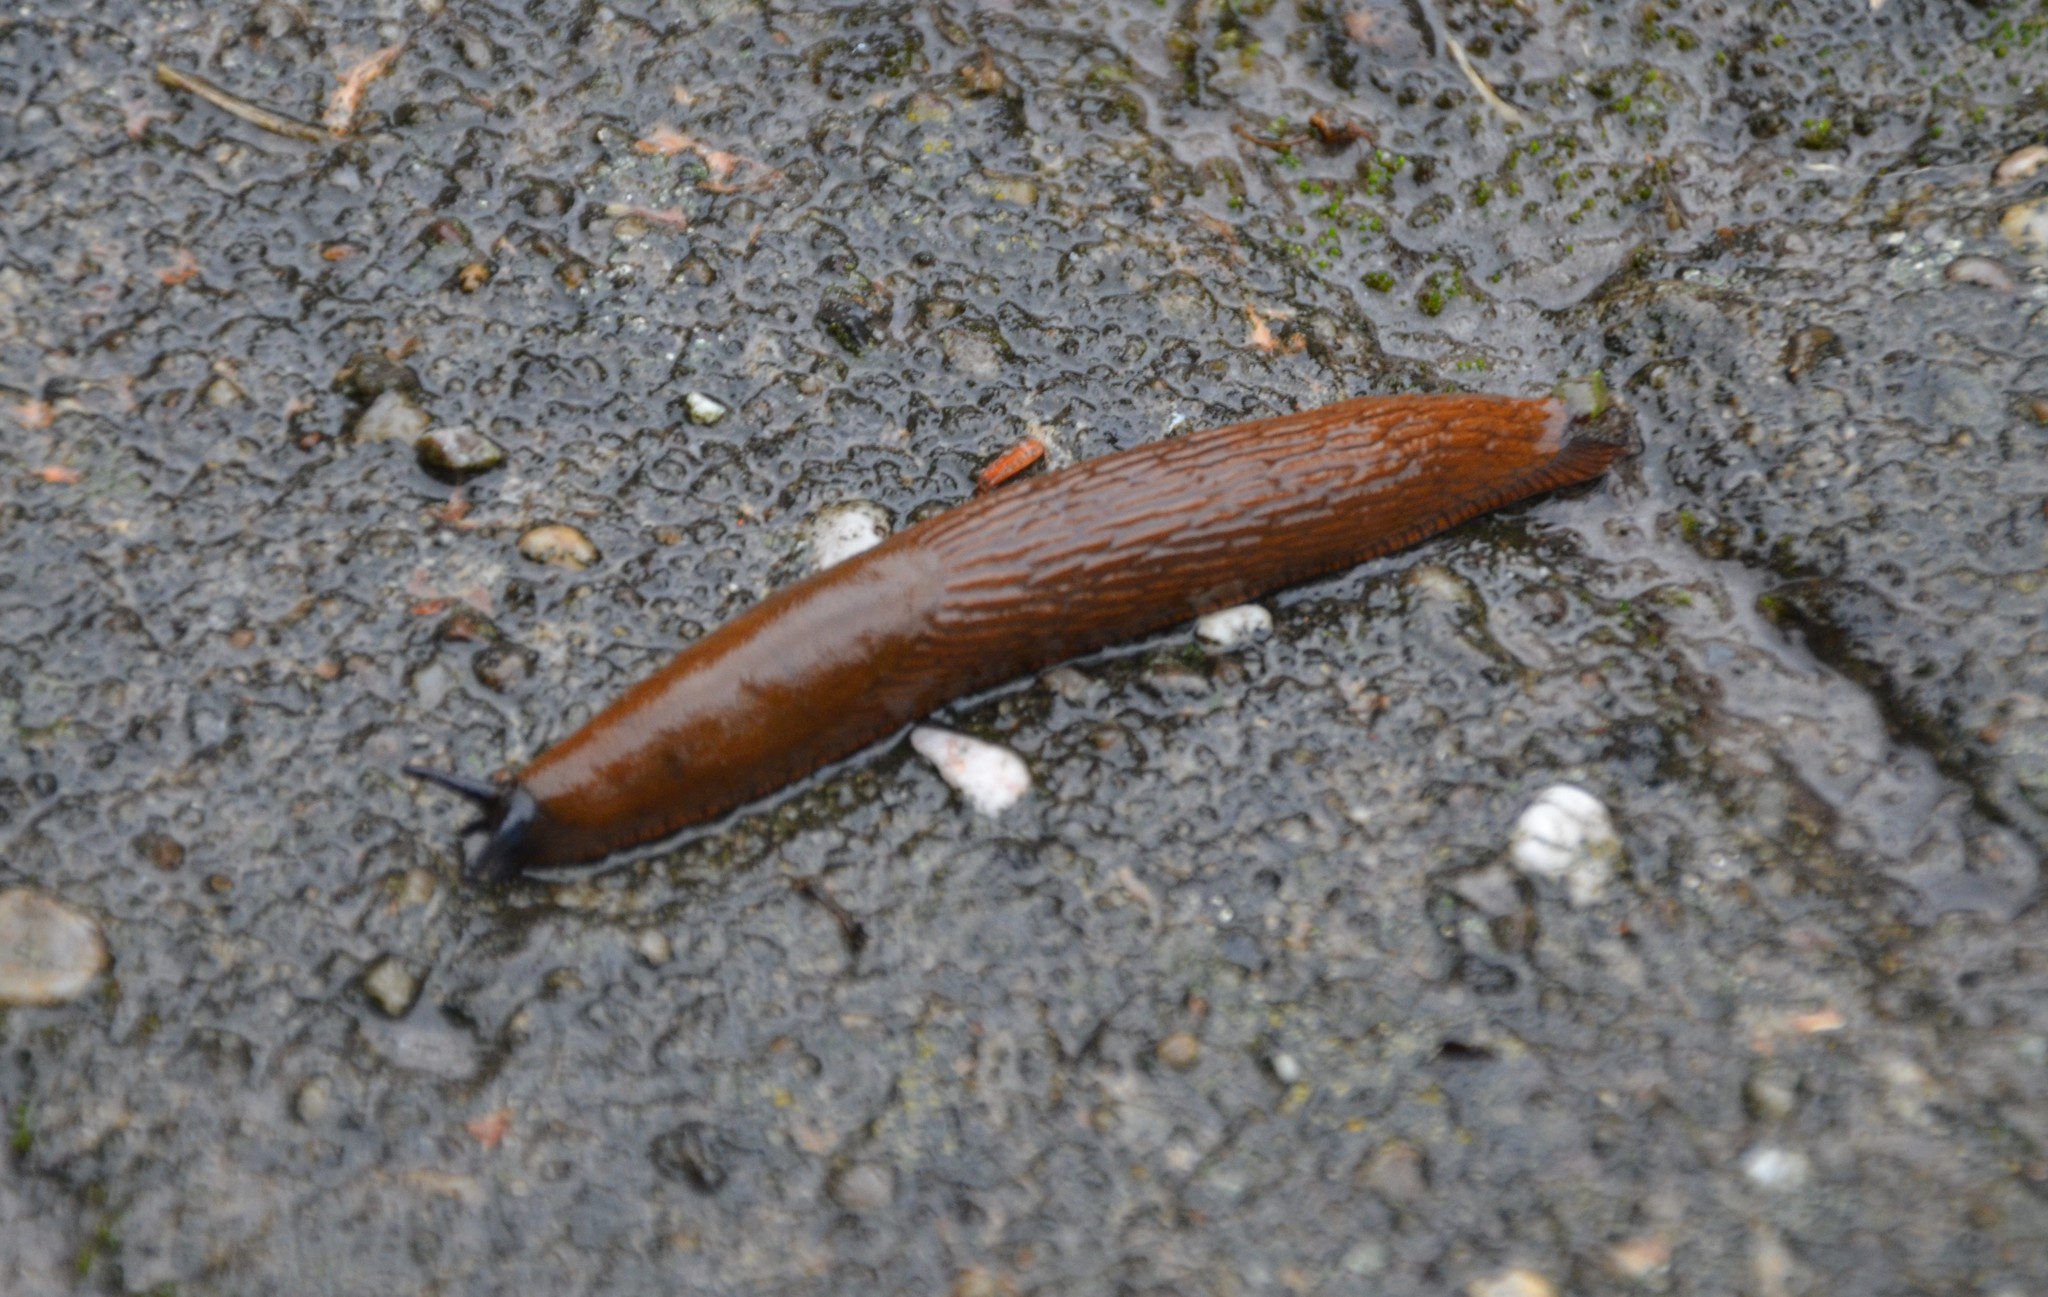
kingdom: Animalia
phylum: Mollusca
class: Gastropoda
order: Stylommatophora
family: Arionidae
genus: Arion
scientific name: Arion vulgaris
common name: Lusitanian slug
